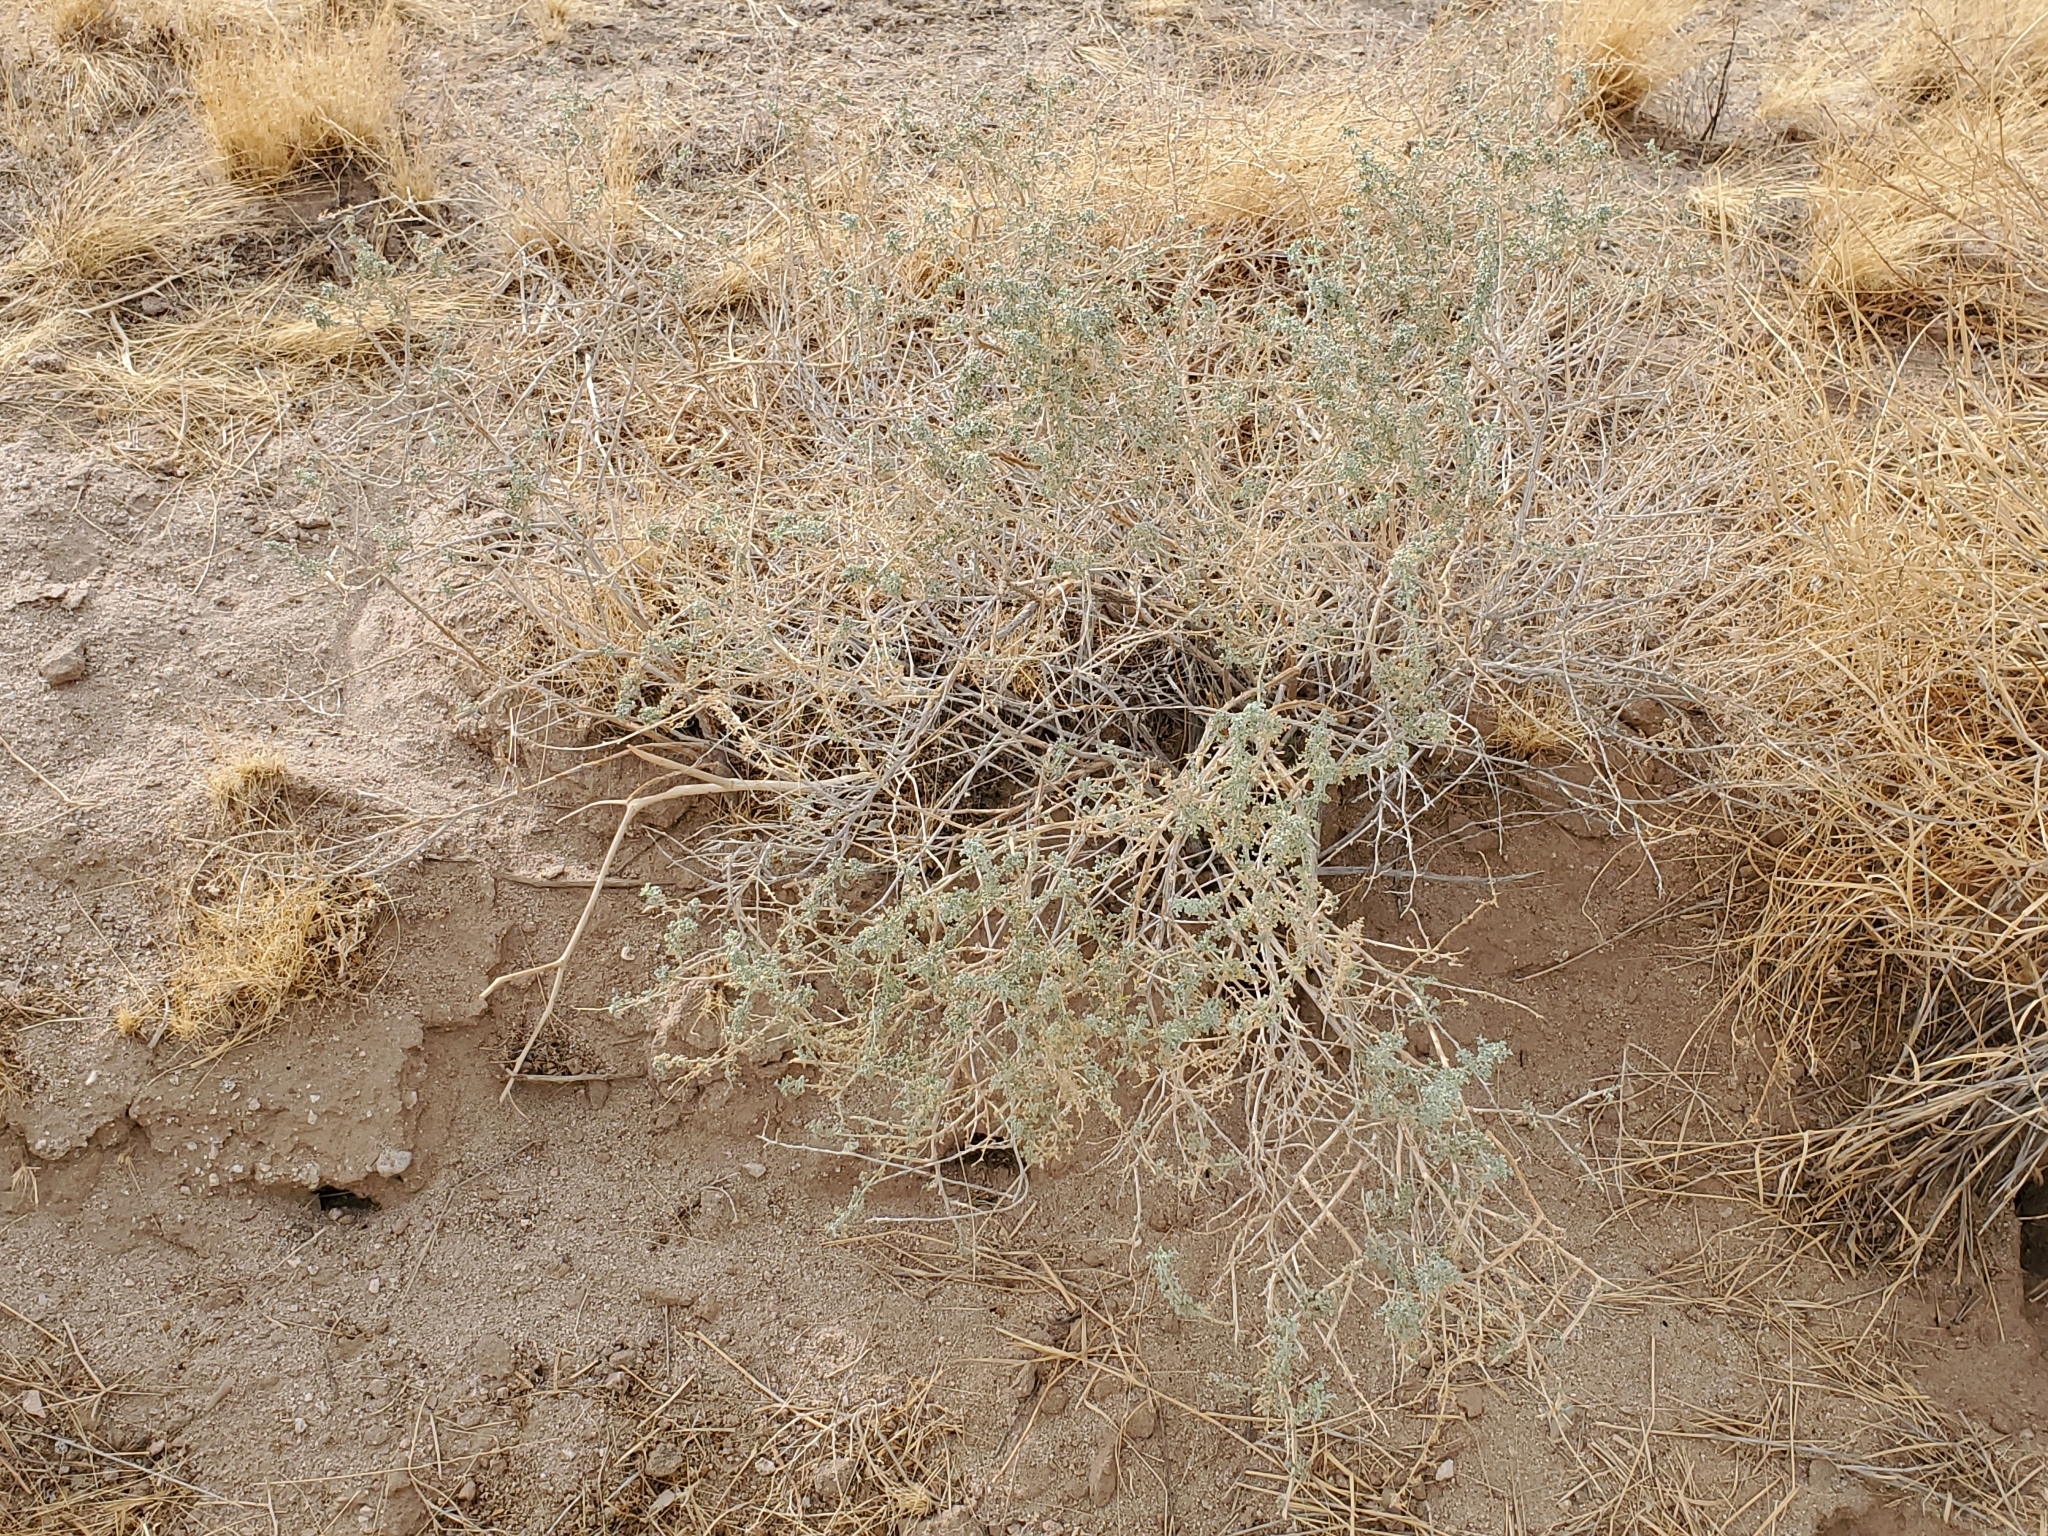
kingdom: Plantae
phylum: Tracheophyta
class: Magnoliopsida
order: Asterales
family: Asteraceae
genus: Ambrosia
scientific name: Ambrosia dumosa
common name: Bur-sage
